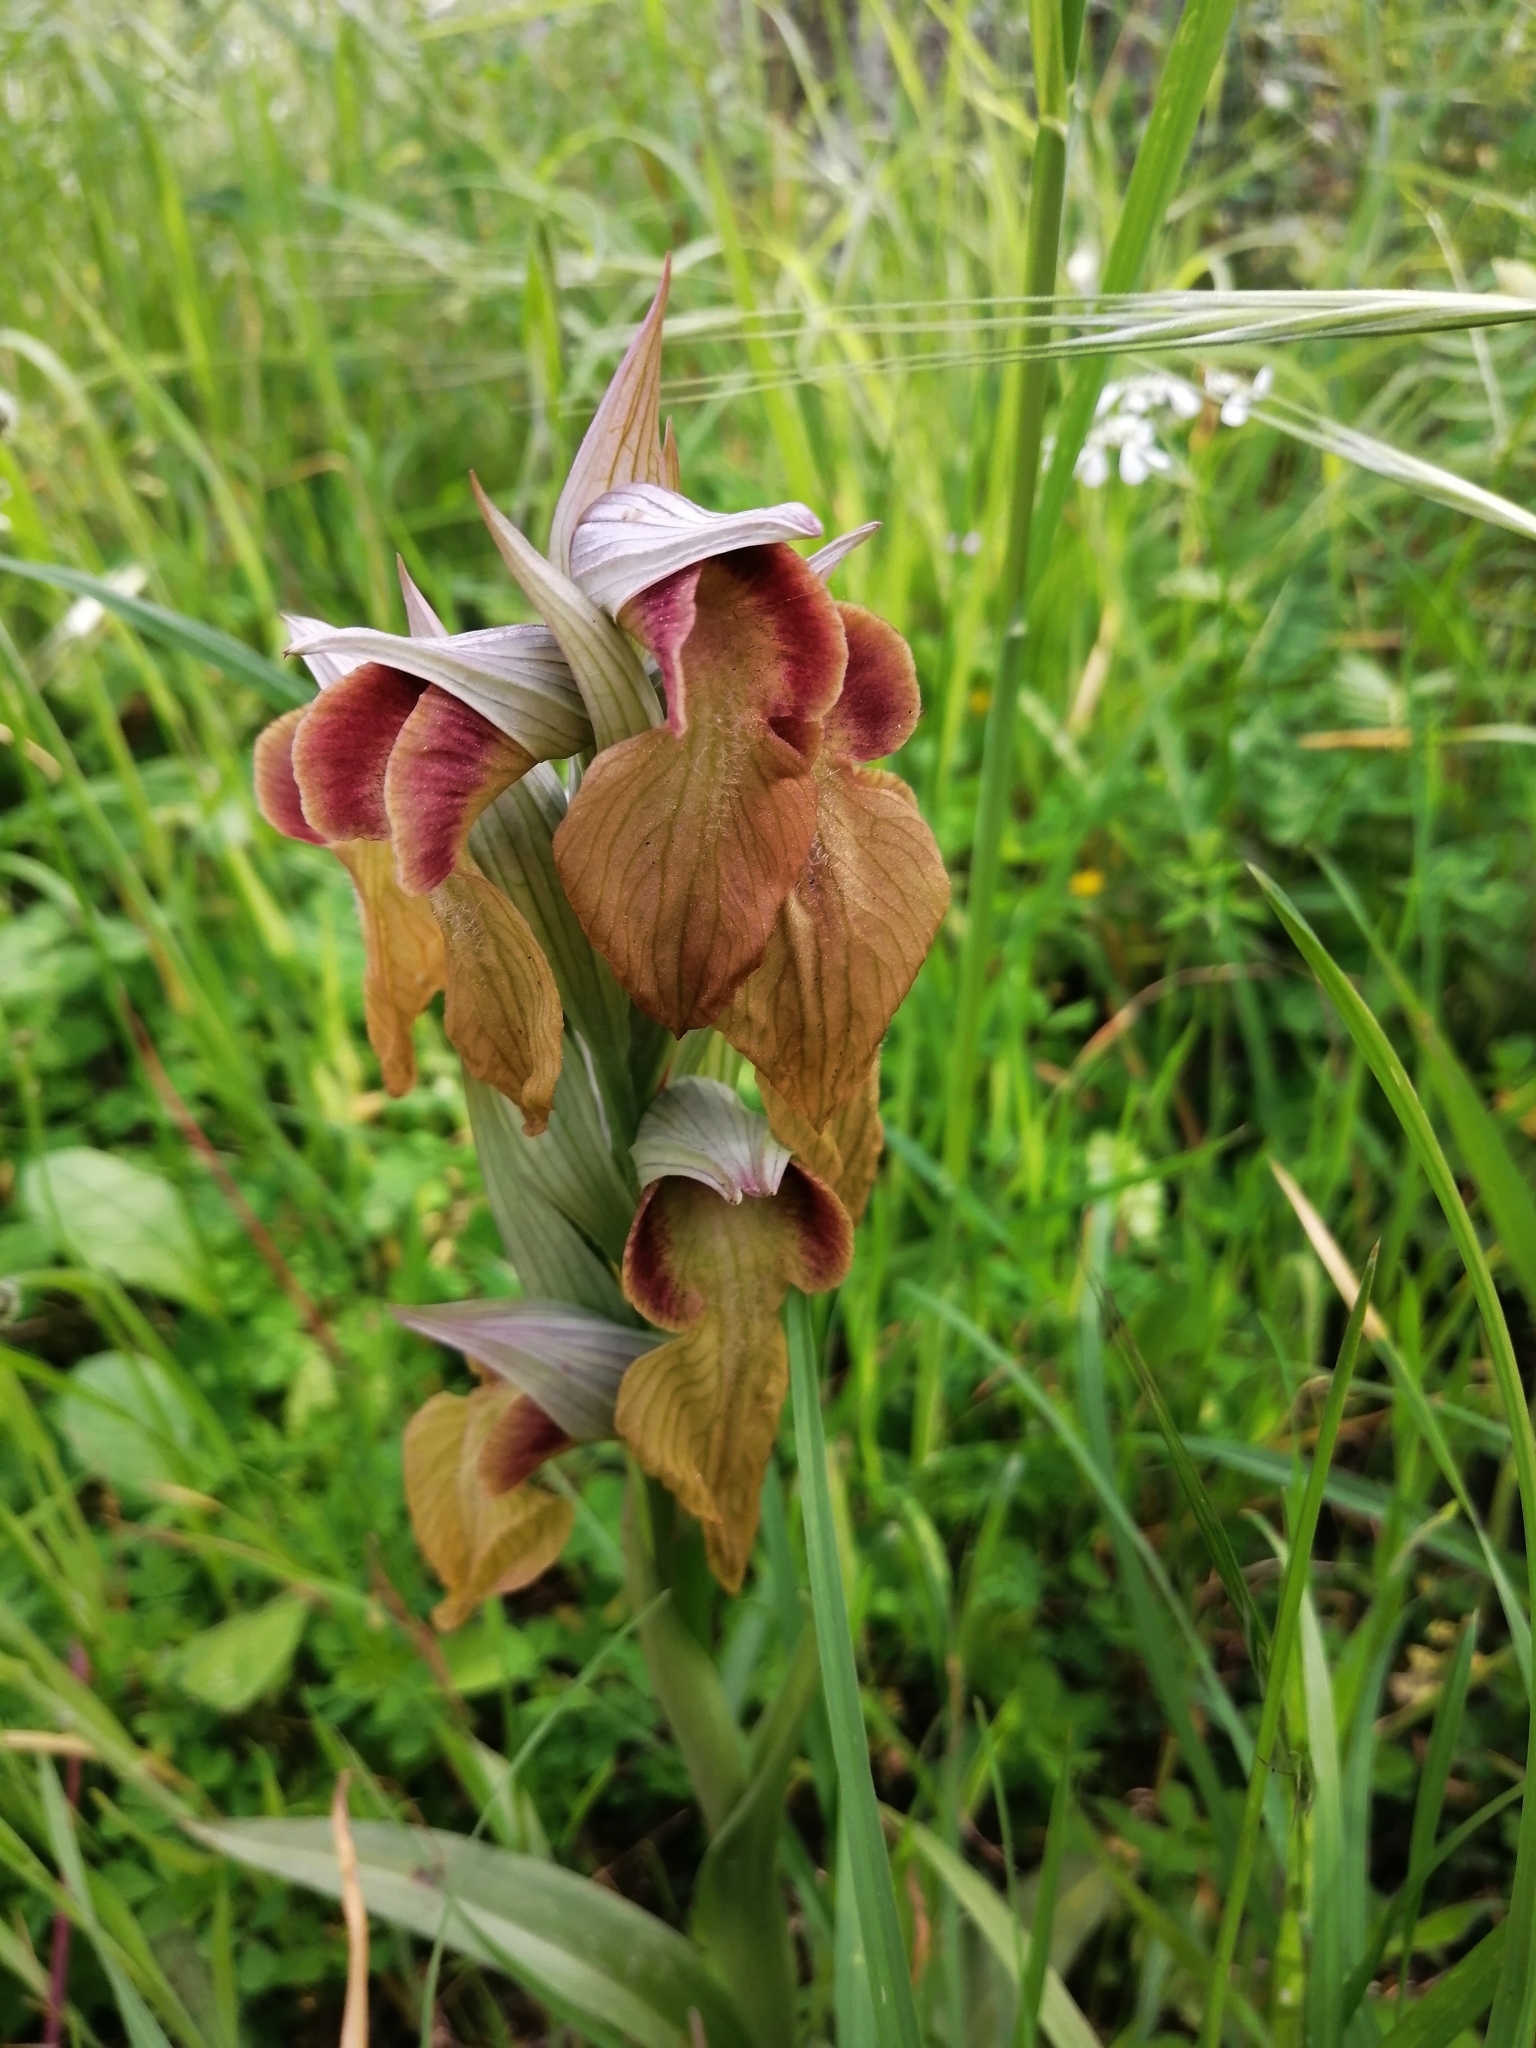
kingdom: Plantae
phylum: Tracheophyta
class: Liliopsida
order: Asparagales
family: Orchidaceae
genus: Serapias
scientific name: Serapias neglecta
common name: Neglected serapias
